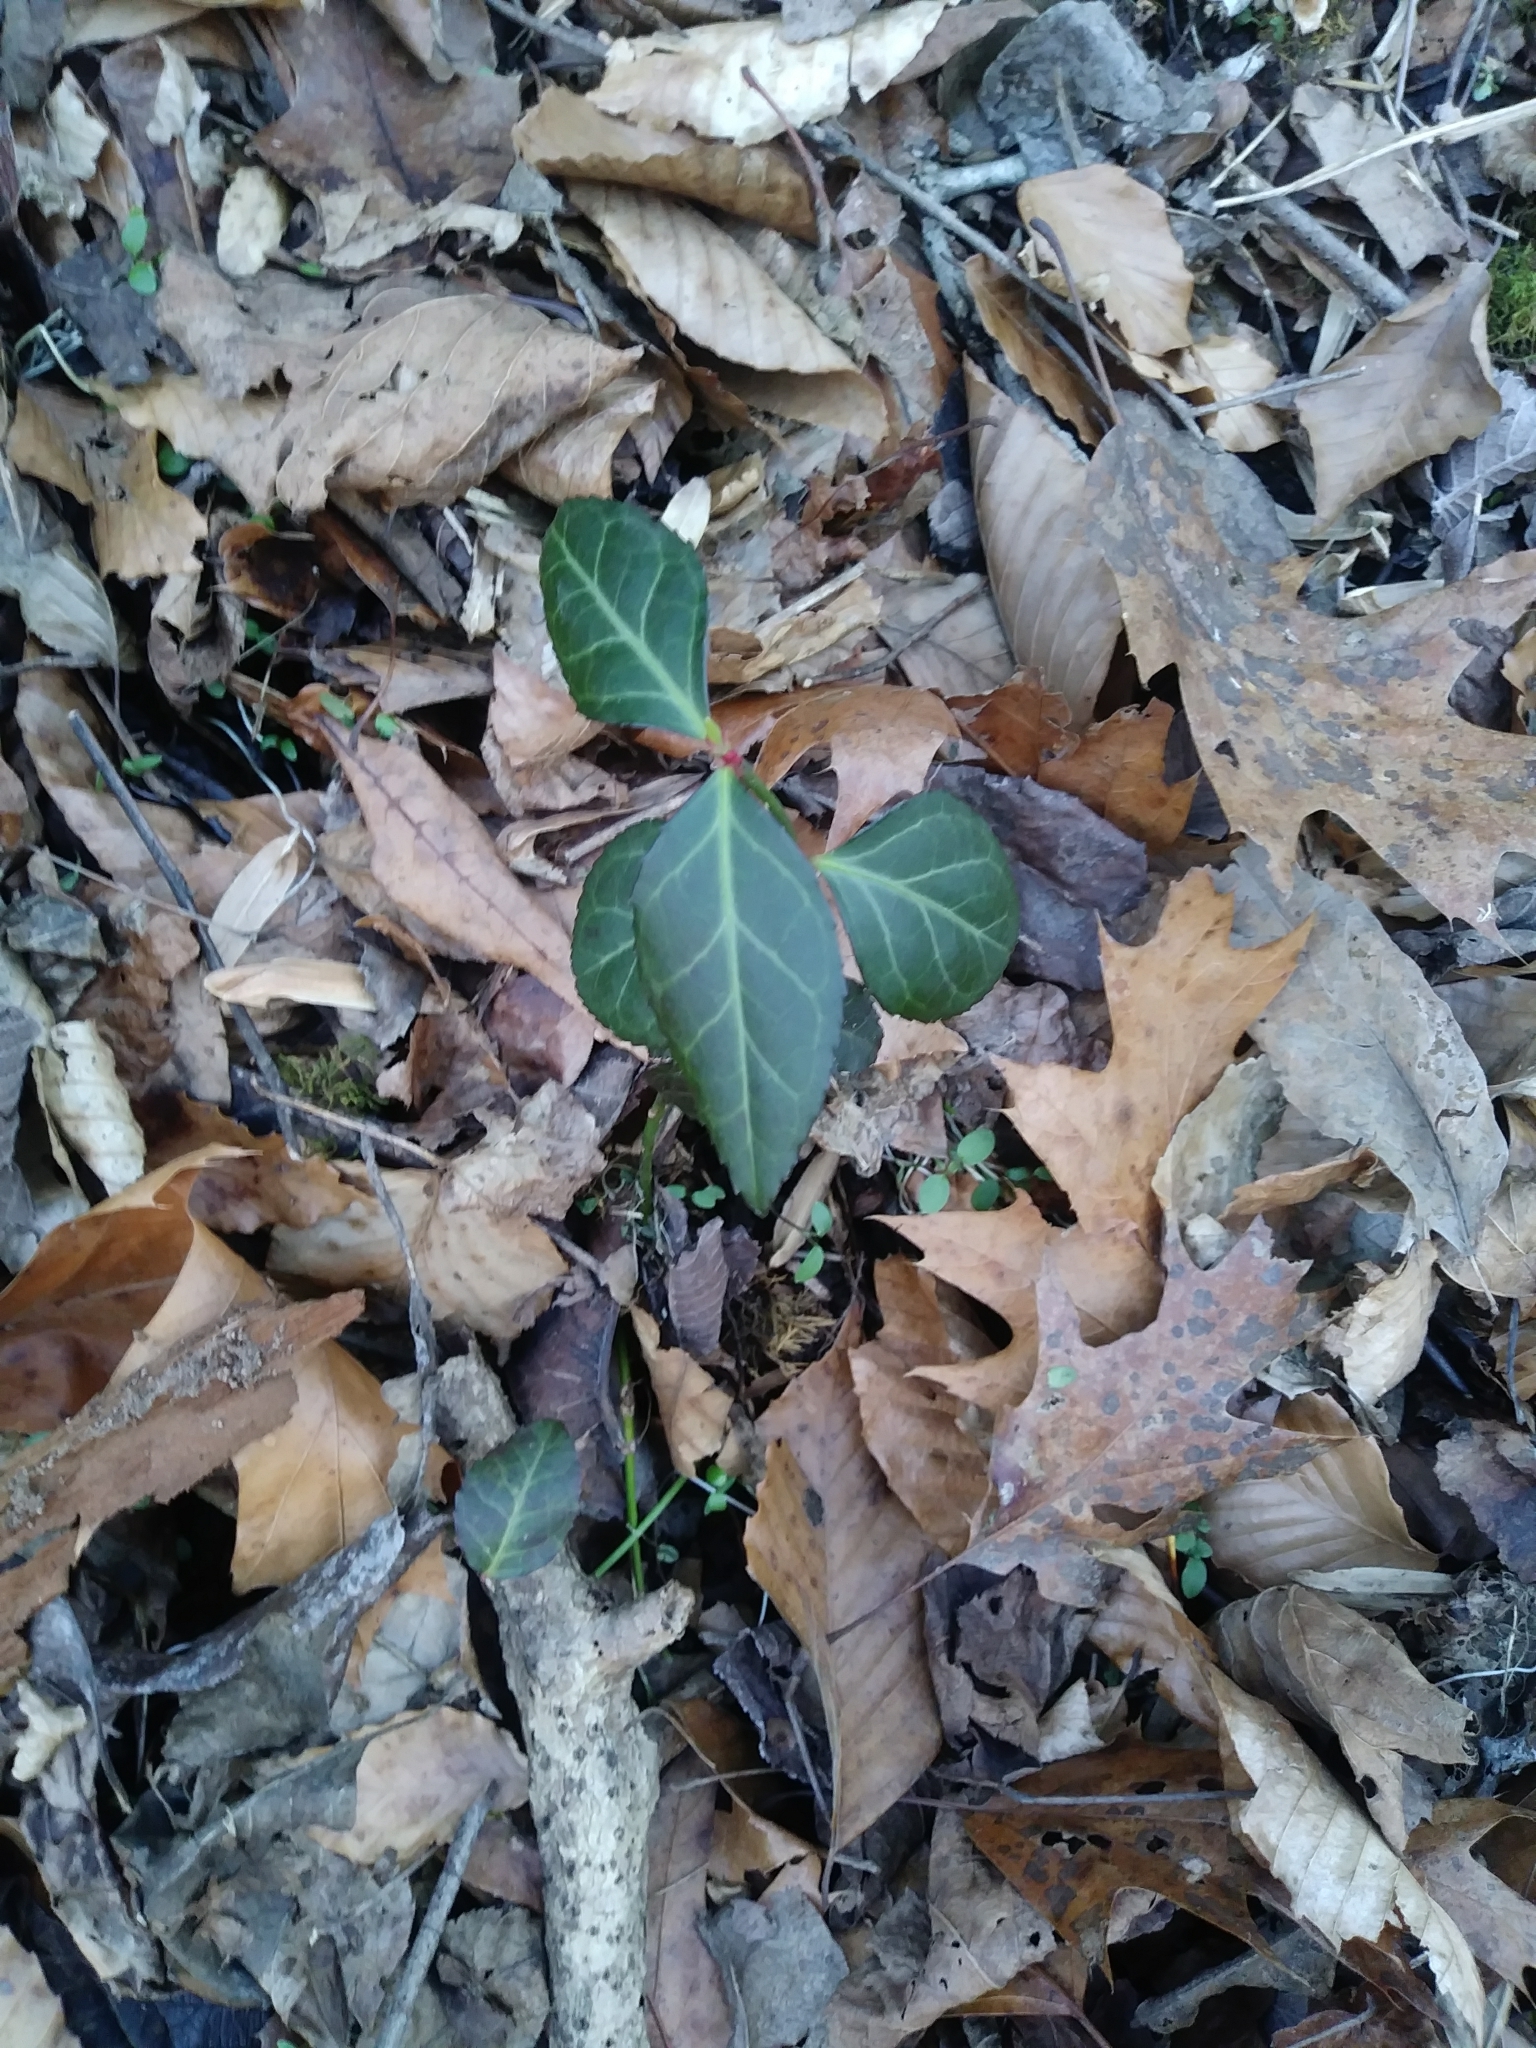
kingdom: Plantae
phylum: Tracheophyta
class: Magnoliopsida
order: Celastrales
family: Celastraceae
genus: Euonymus
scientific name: Euonymus fortunei
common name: Climbing euonymus
